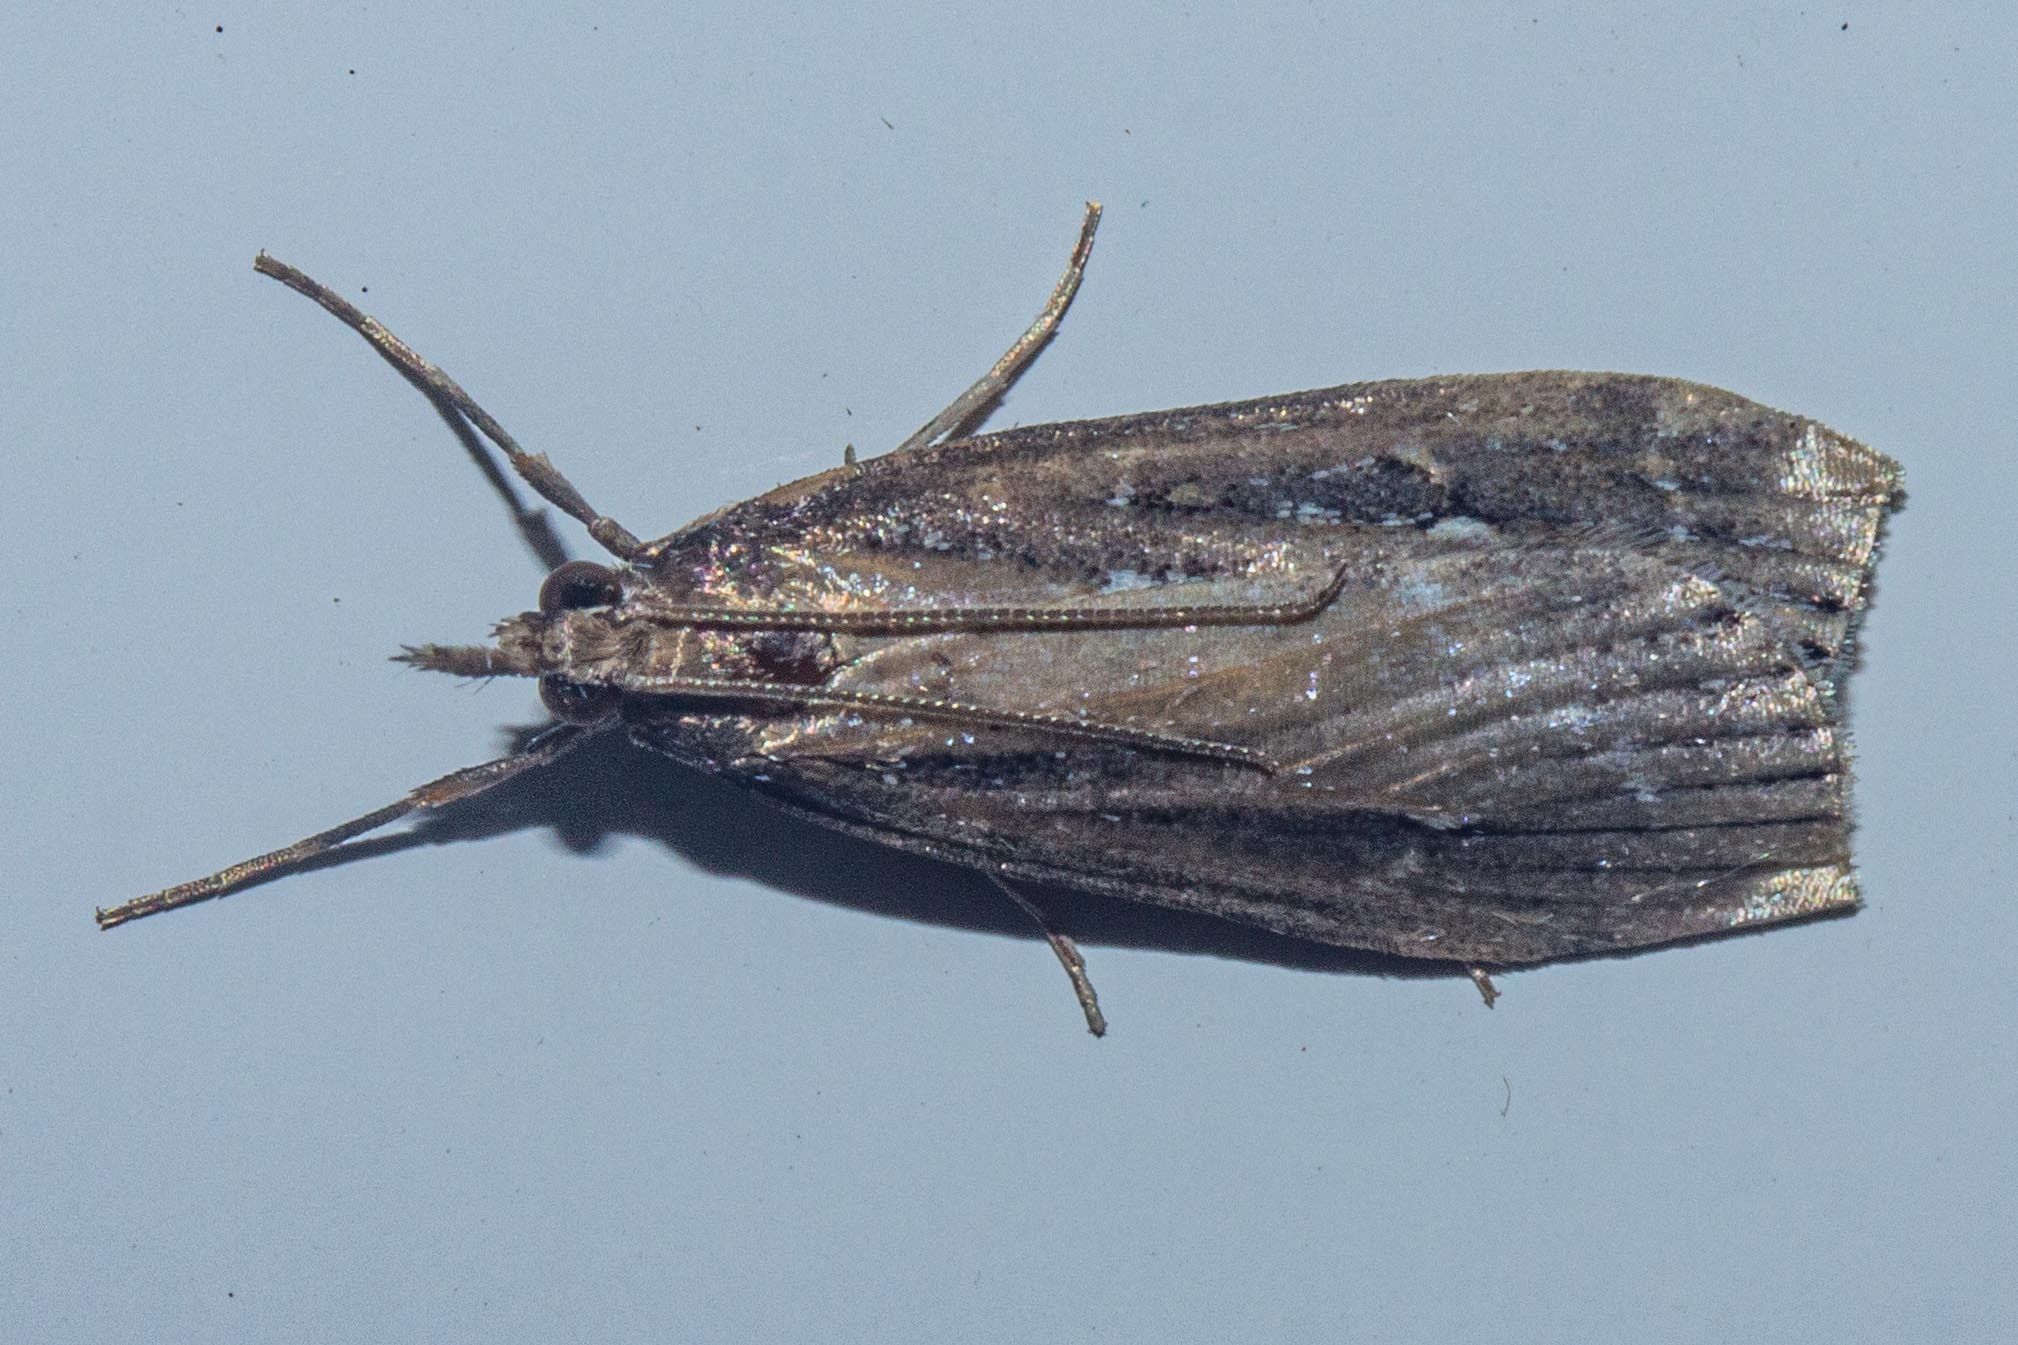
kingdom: Animalia
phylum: Arthropoda
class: Insecta
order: Lepidoptera
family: Crambidae
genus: Eudonia
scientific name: Eudonia octophora
